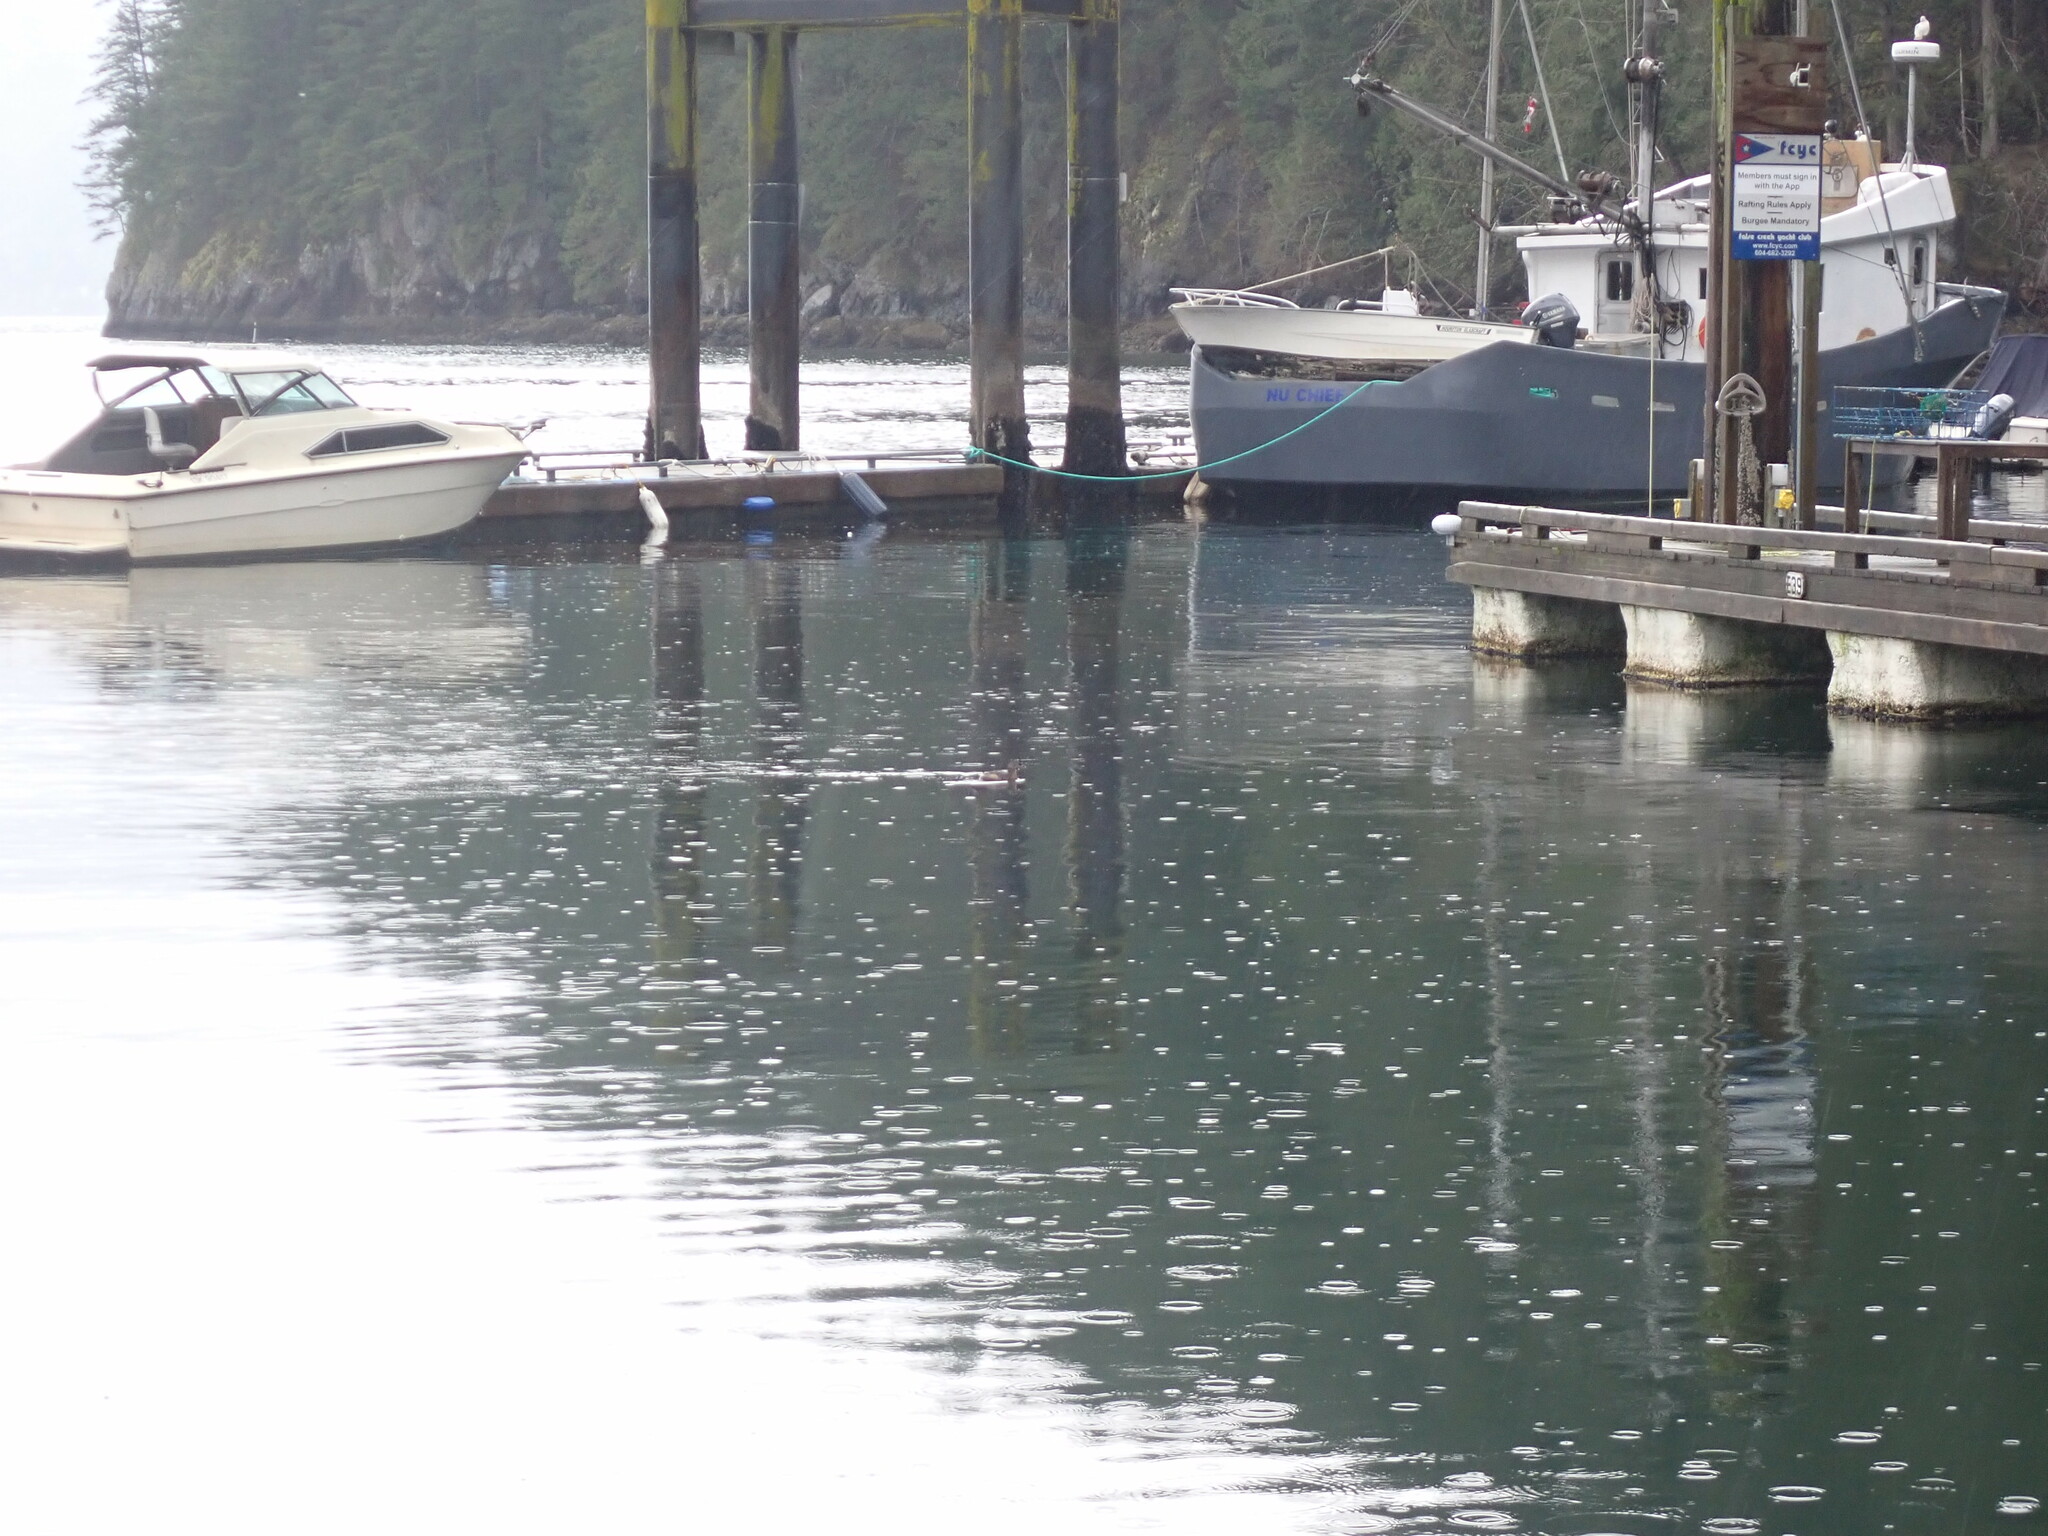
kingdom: Animalia
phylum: Chordata
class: Aves
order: Podicipediformes
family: Podicipedidae
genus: Podilymbus
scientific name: Podilymbus podiceps
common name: Pied-billed grebe
